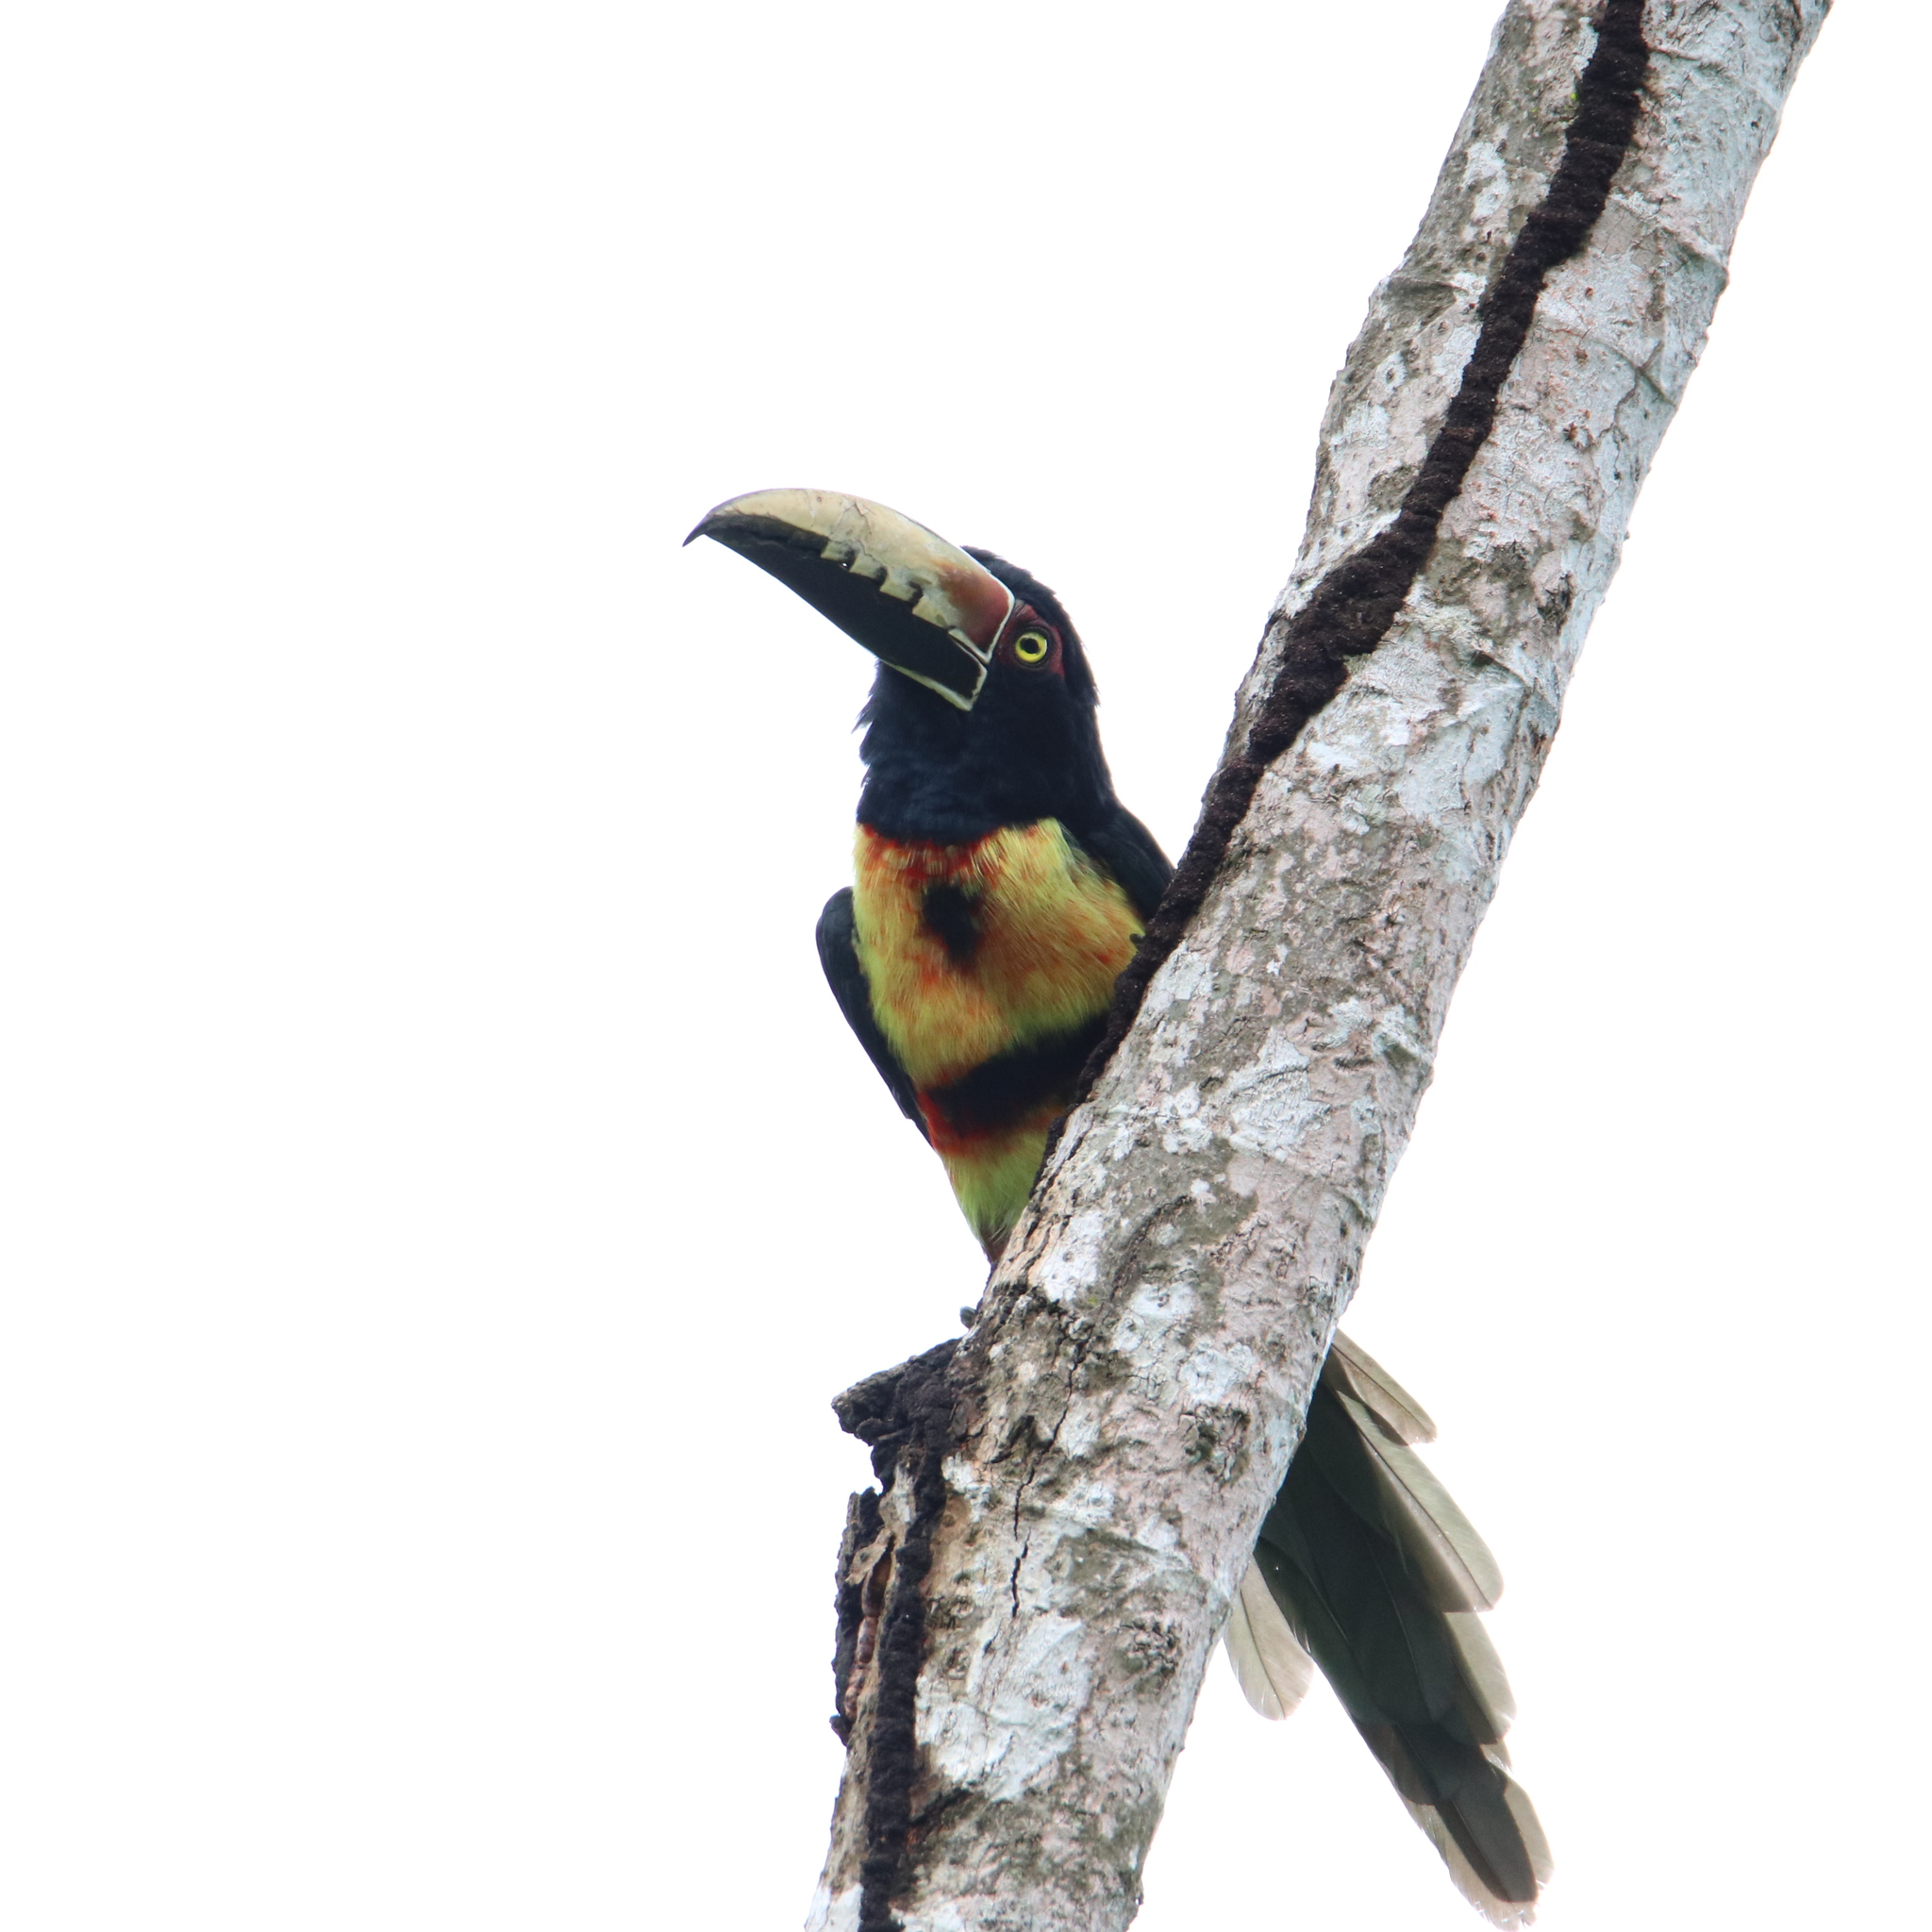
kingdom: Animalia
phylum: Chordata
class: Aves
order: Piciformes
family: Ramphastidae
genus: Pteroglossus
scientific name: Pteroglossus torquatus
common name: Collared aracari
